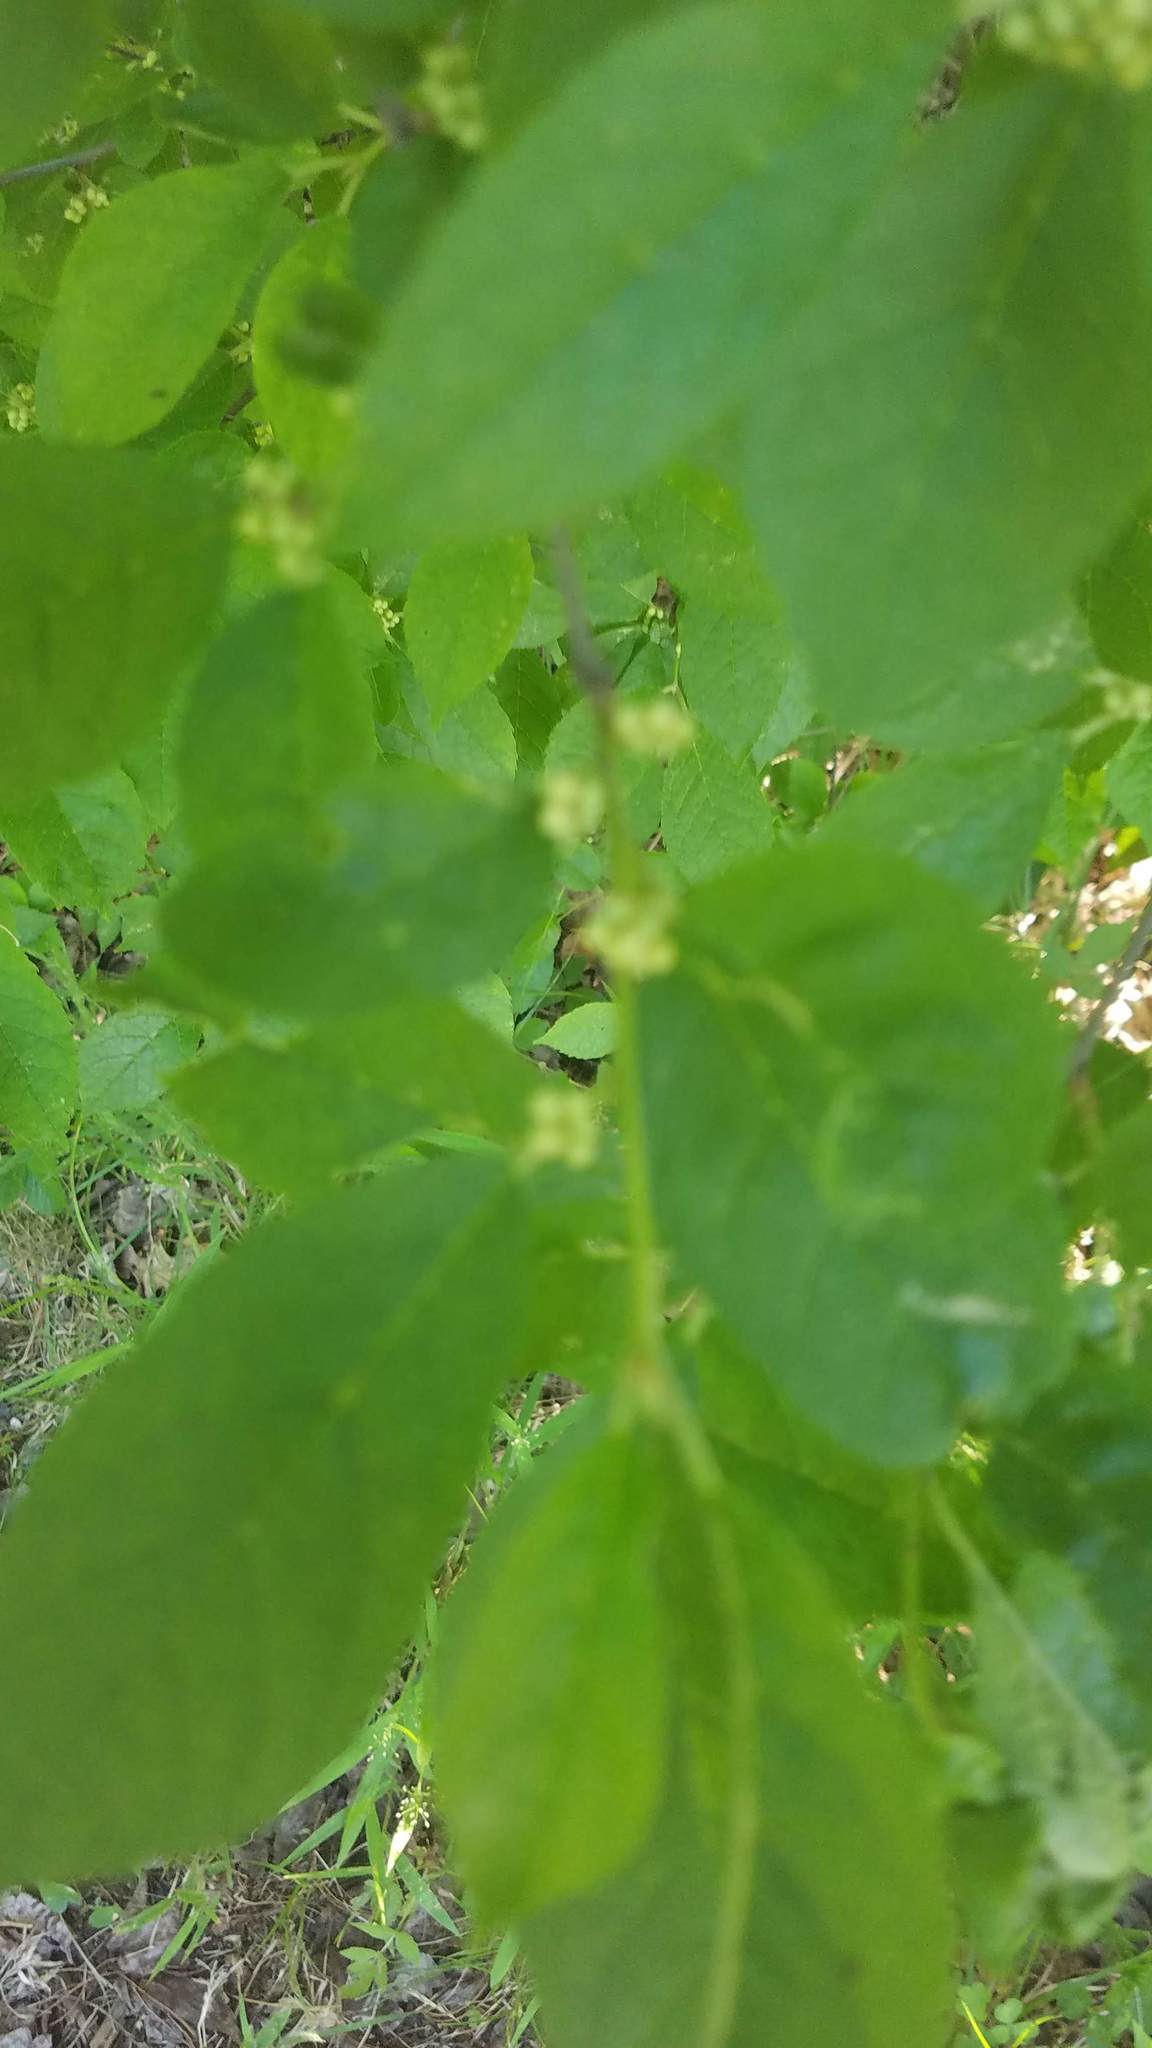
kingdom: Plantae
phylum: Tracheophyta
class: Magnoliopsida
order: Aquifoliales
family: Aquifoliaceae
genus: Ilex
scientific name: Ilex verticillata
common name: Virginia winterberry
